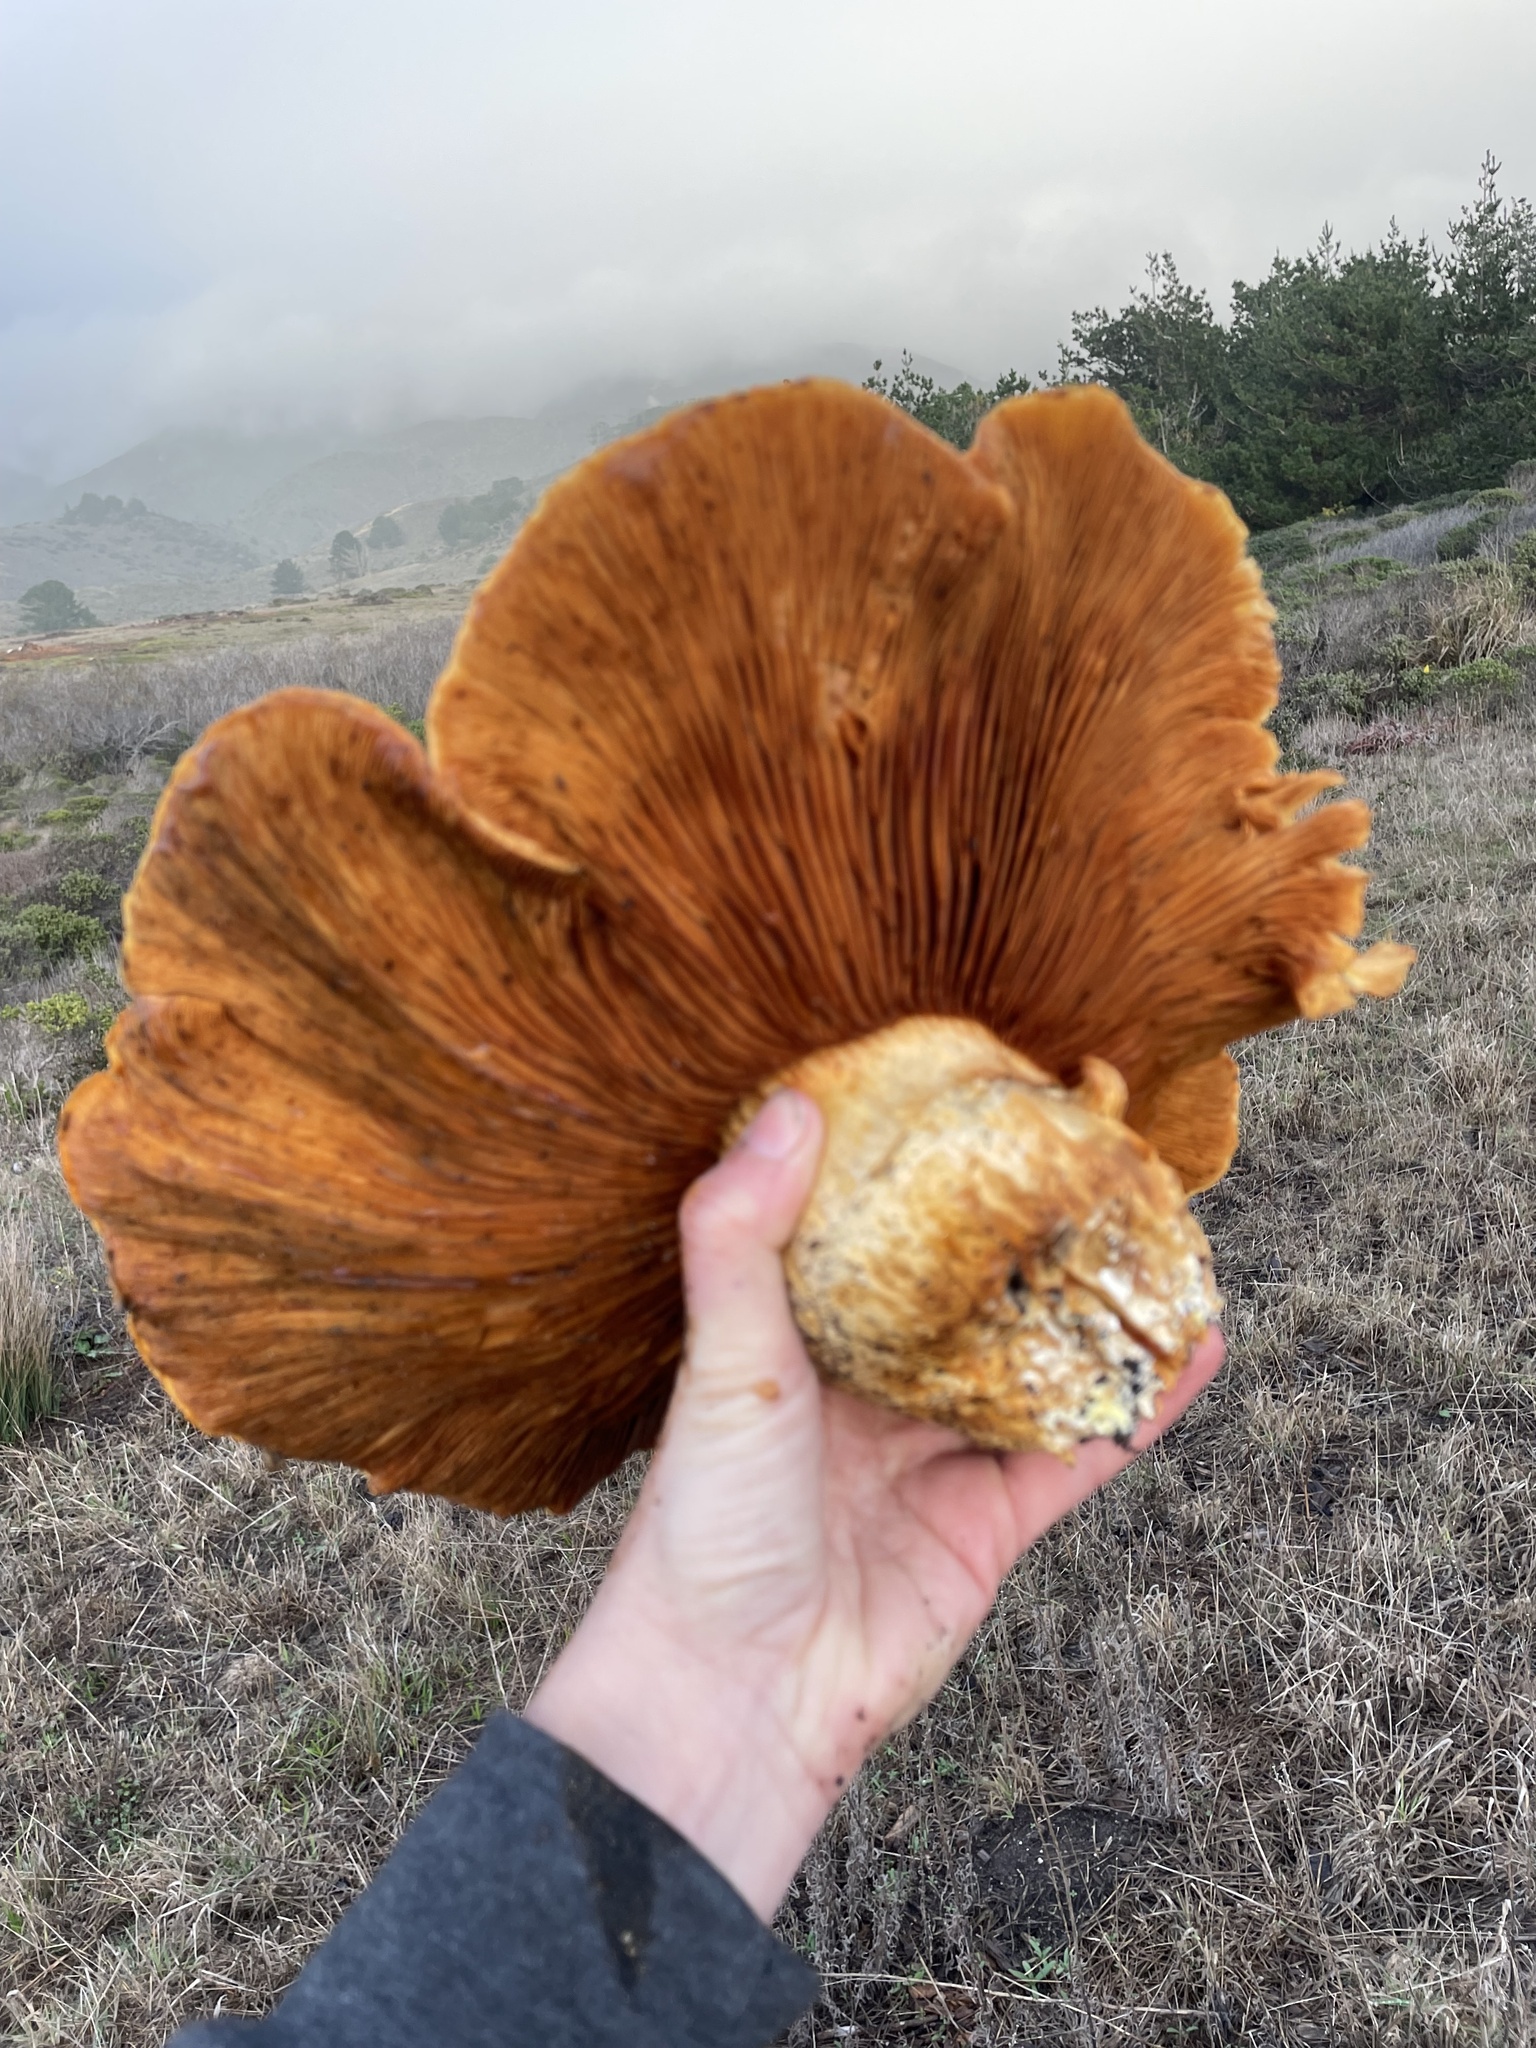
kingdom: Fungi
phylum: Basidiomycota
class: Agaricomycetes
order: Agaricales
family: Hymenogastraceae
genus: Gymnopilus
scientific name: Gymnopilus ventricosus
